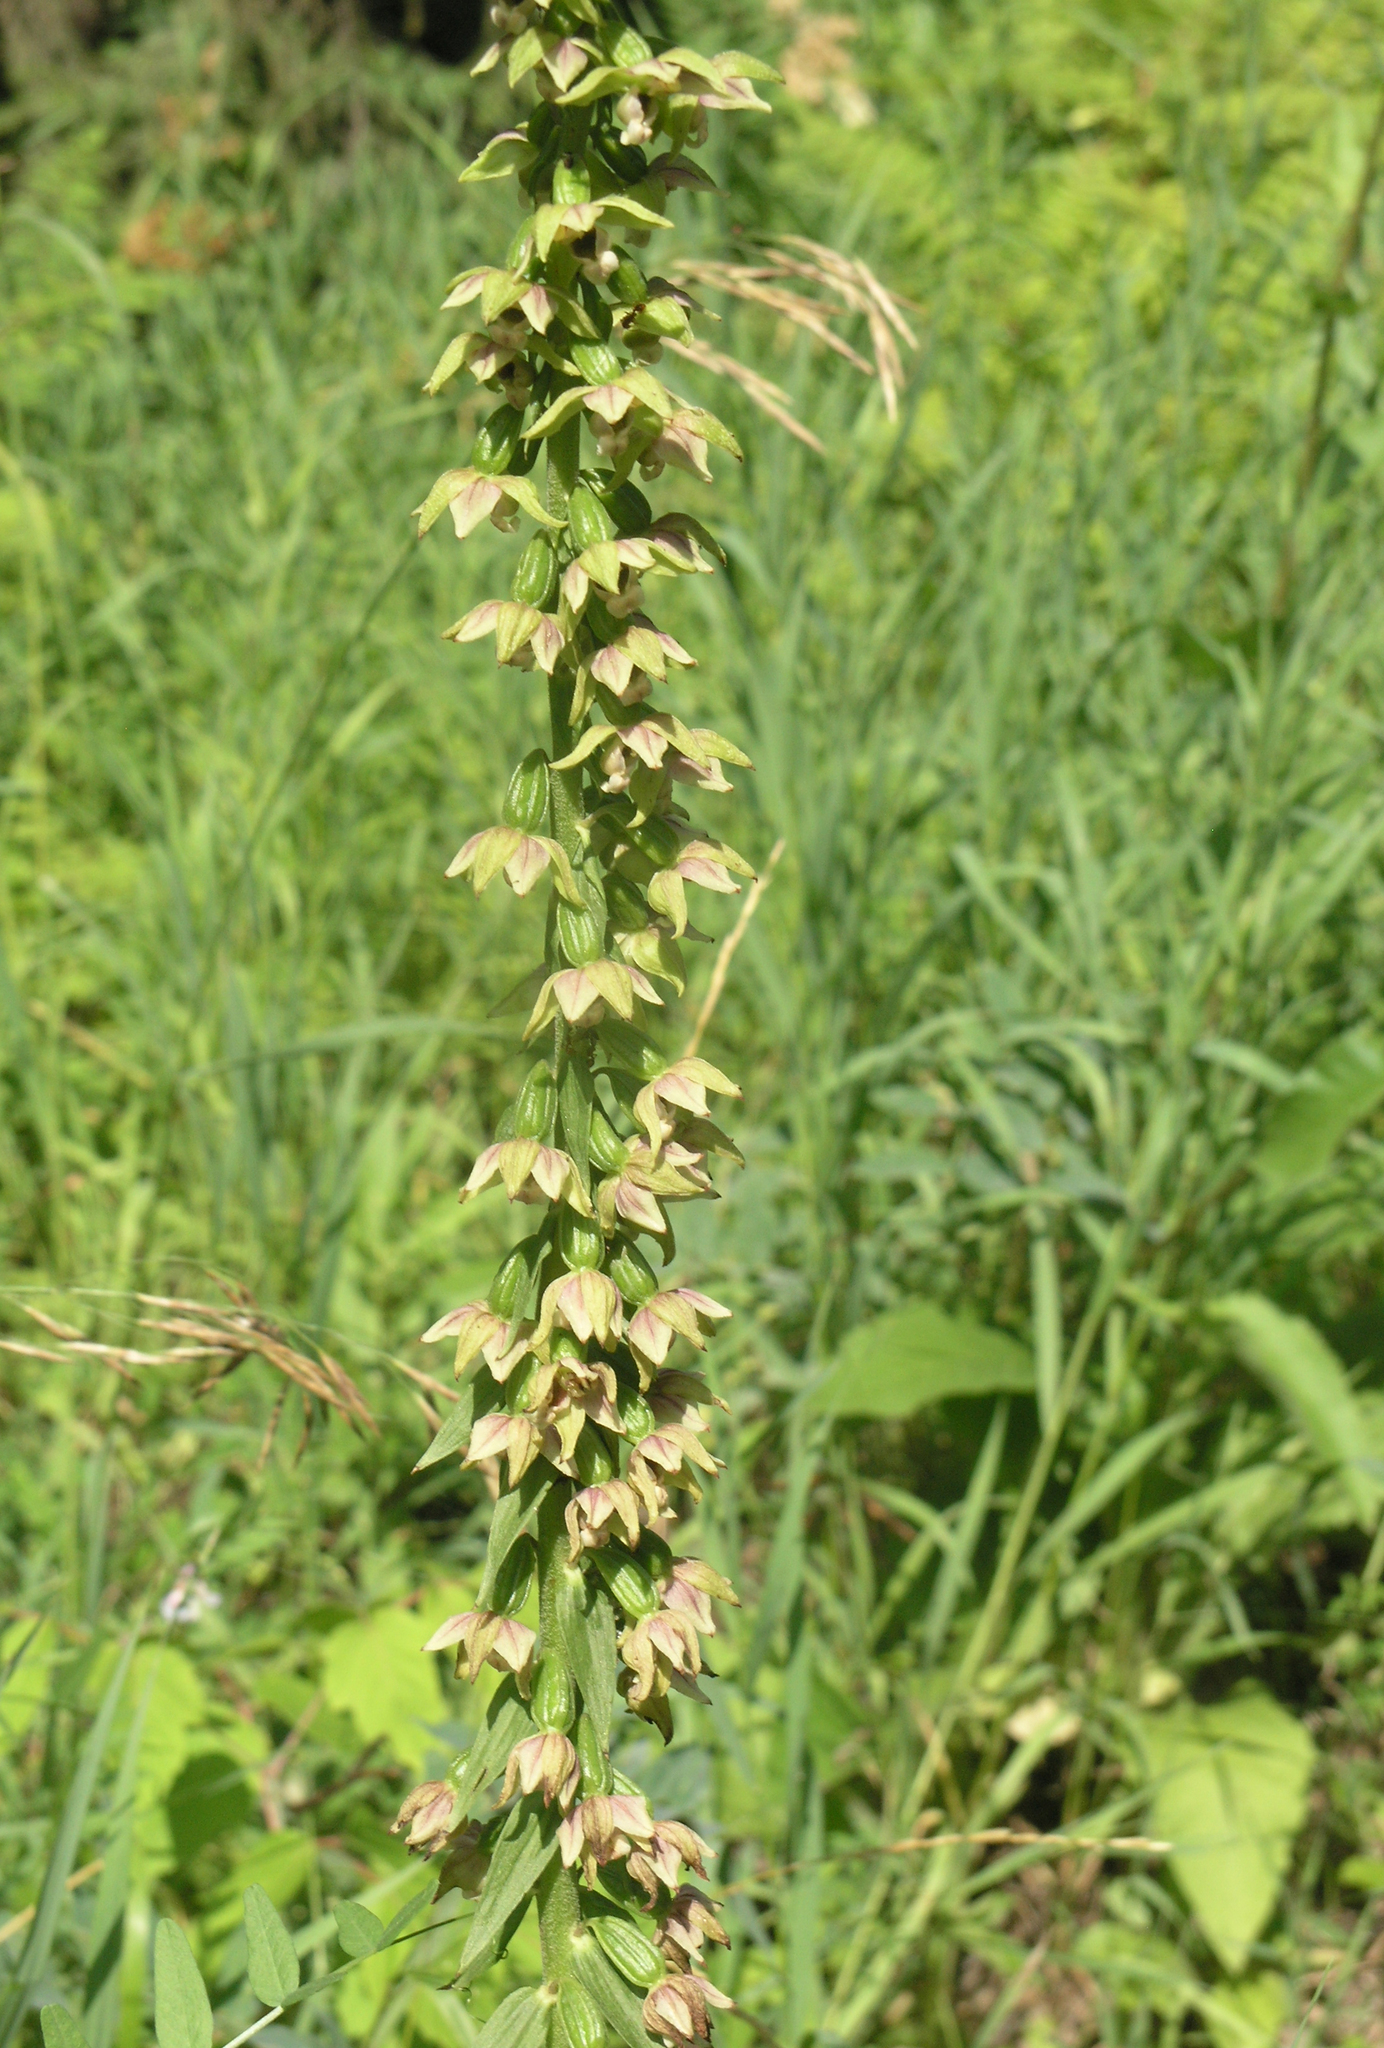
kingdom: Plantae
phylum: Tracheophyta
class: Liliopsida
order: Asparagales
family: Orchidaceae
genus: Epipactis
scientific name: Epipactis helleborine
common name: Broad-leaved helleborine
